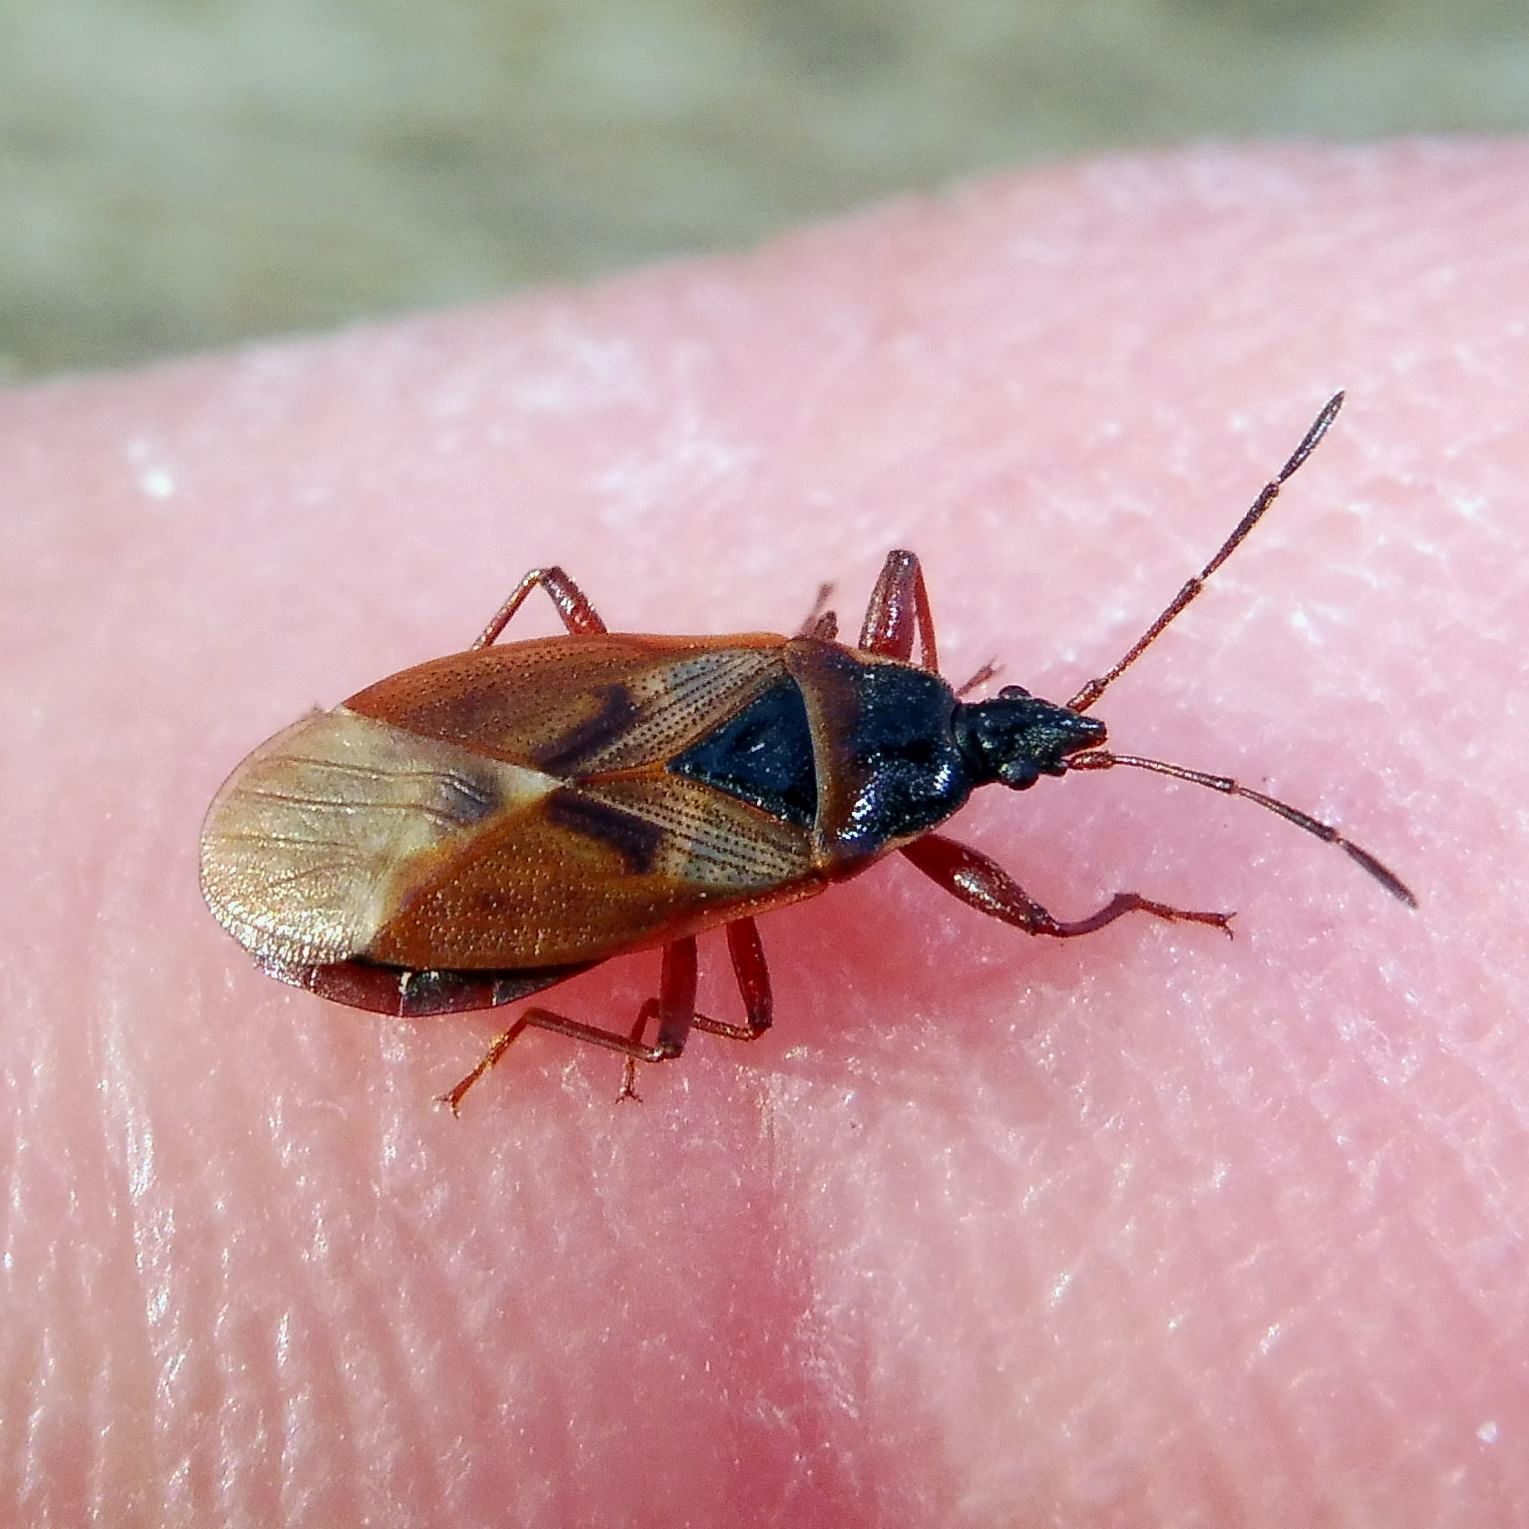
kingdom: Animalia
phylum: Arthropoda
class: Insecta
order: Hemiptera
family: Rhyparochromidae
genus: Gastrodes
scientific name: Gastrodes abietum
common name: Spruce cone bug
